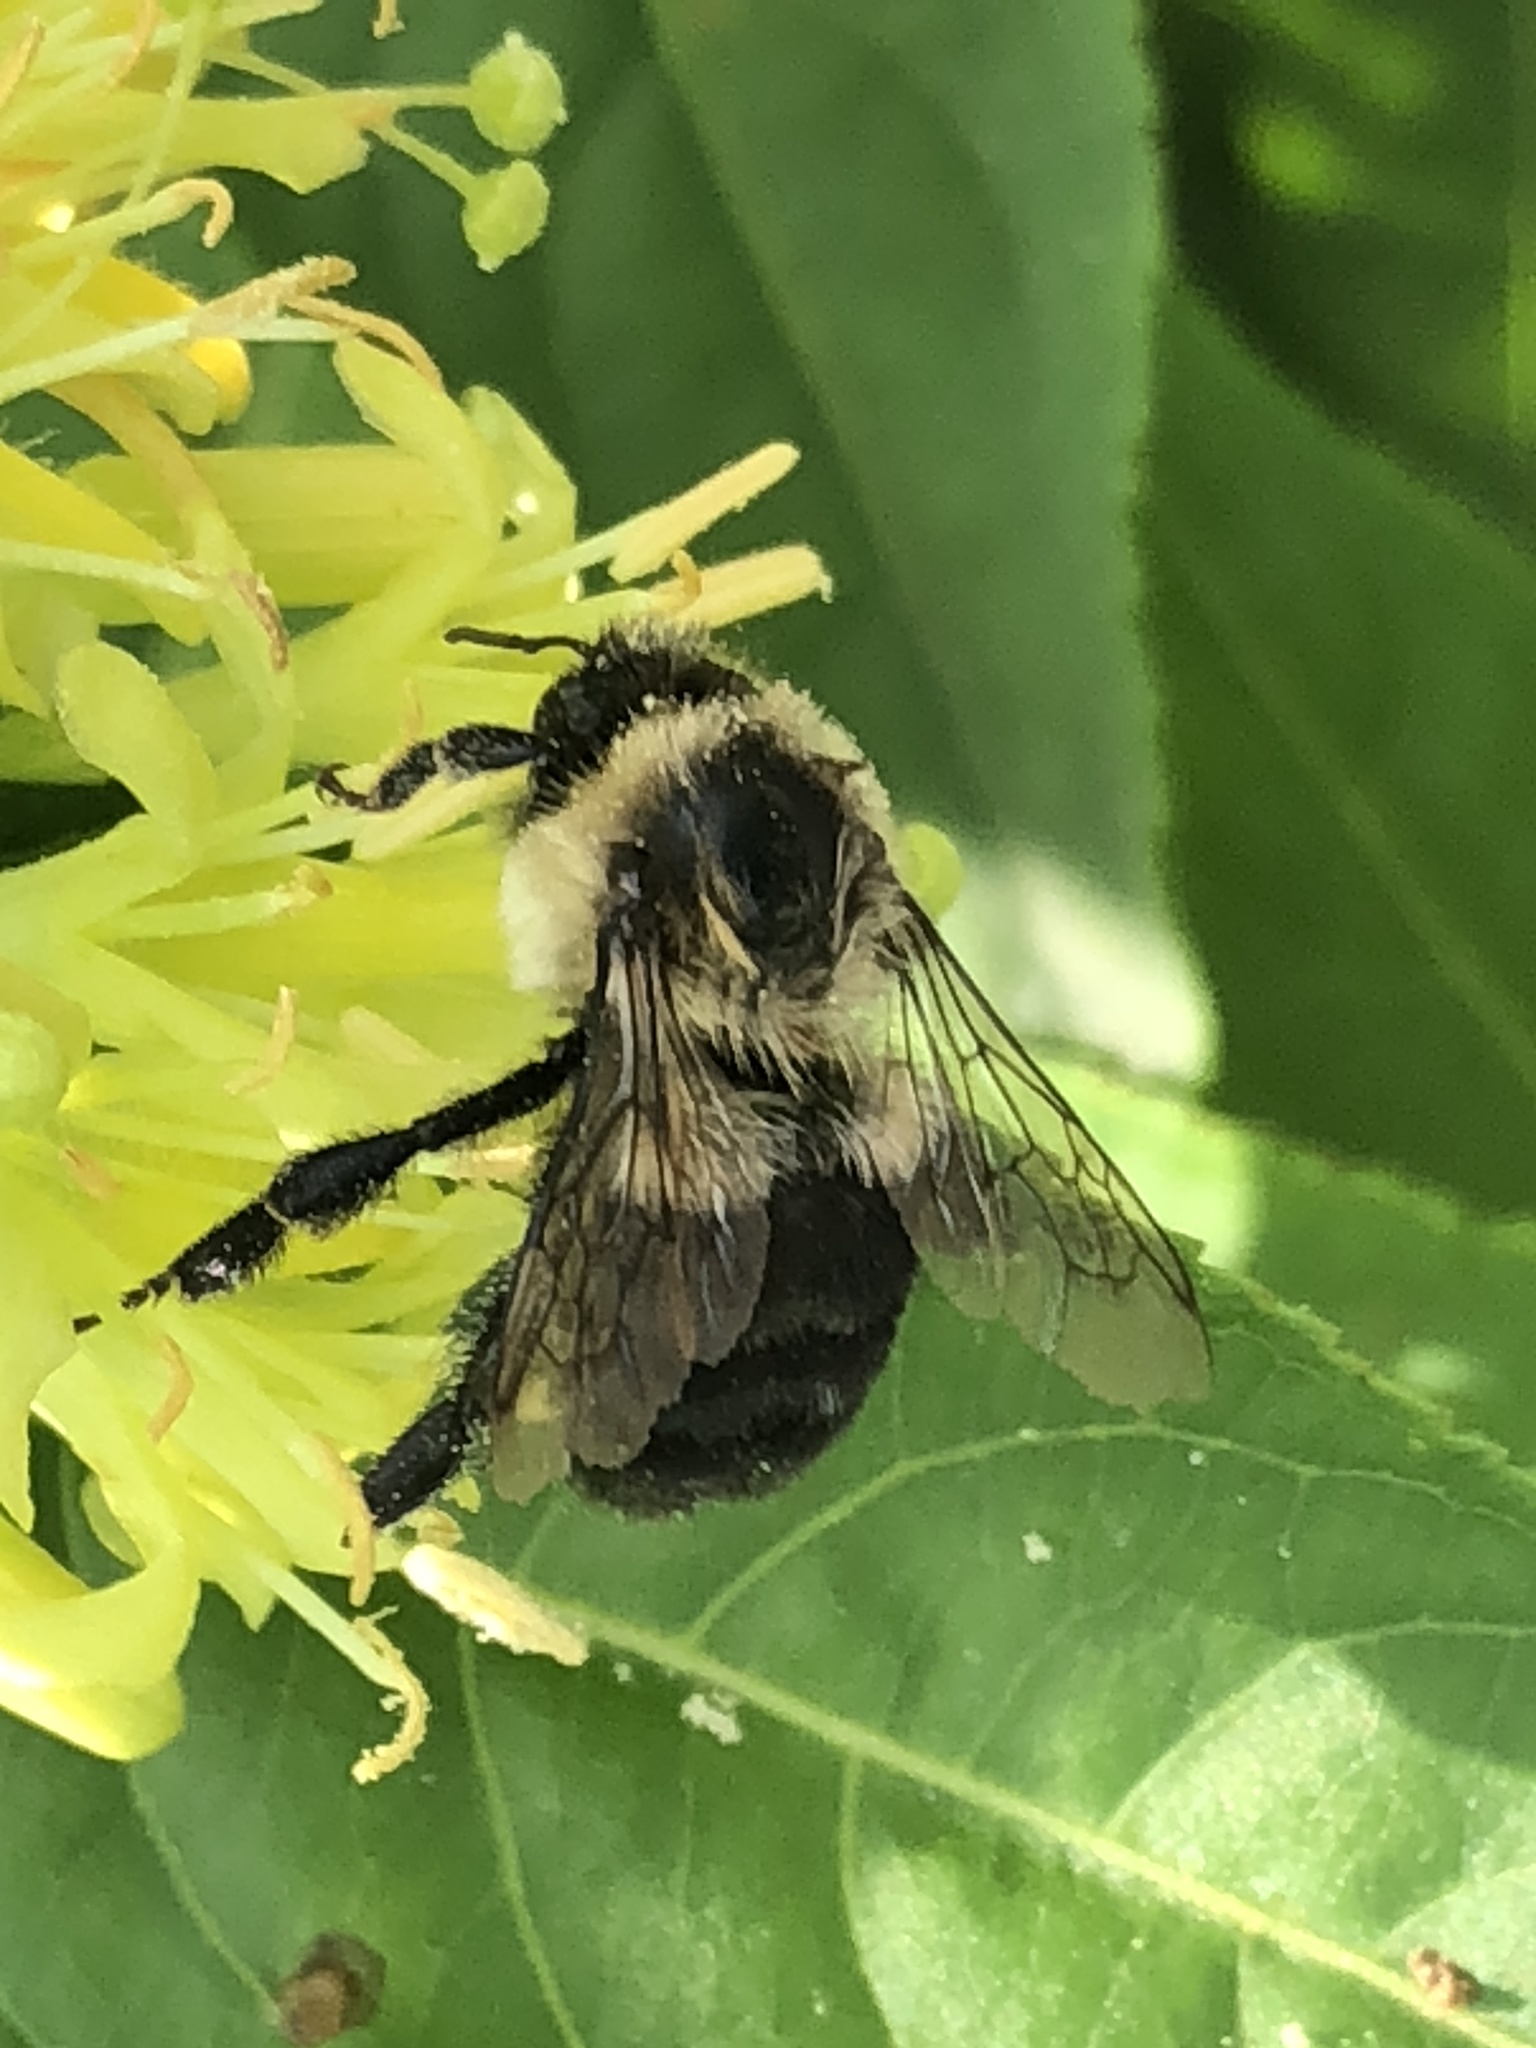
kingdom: Animalia
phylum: Arthropoda
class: Insecta
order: Hymenoptera
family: Apidae
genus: Bombus
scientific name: Bombus impatiens
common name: Common eastern bumble bee
